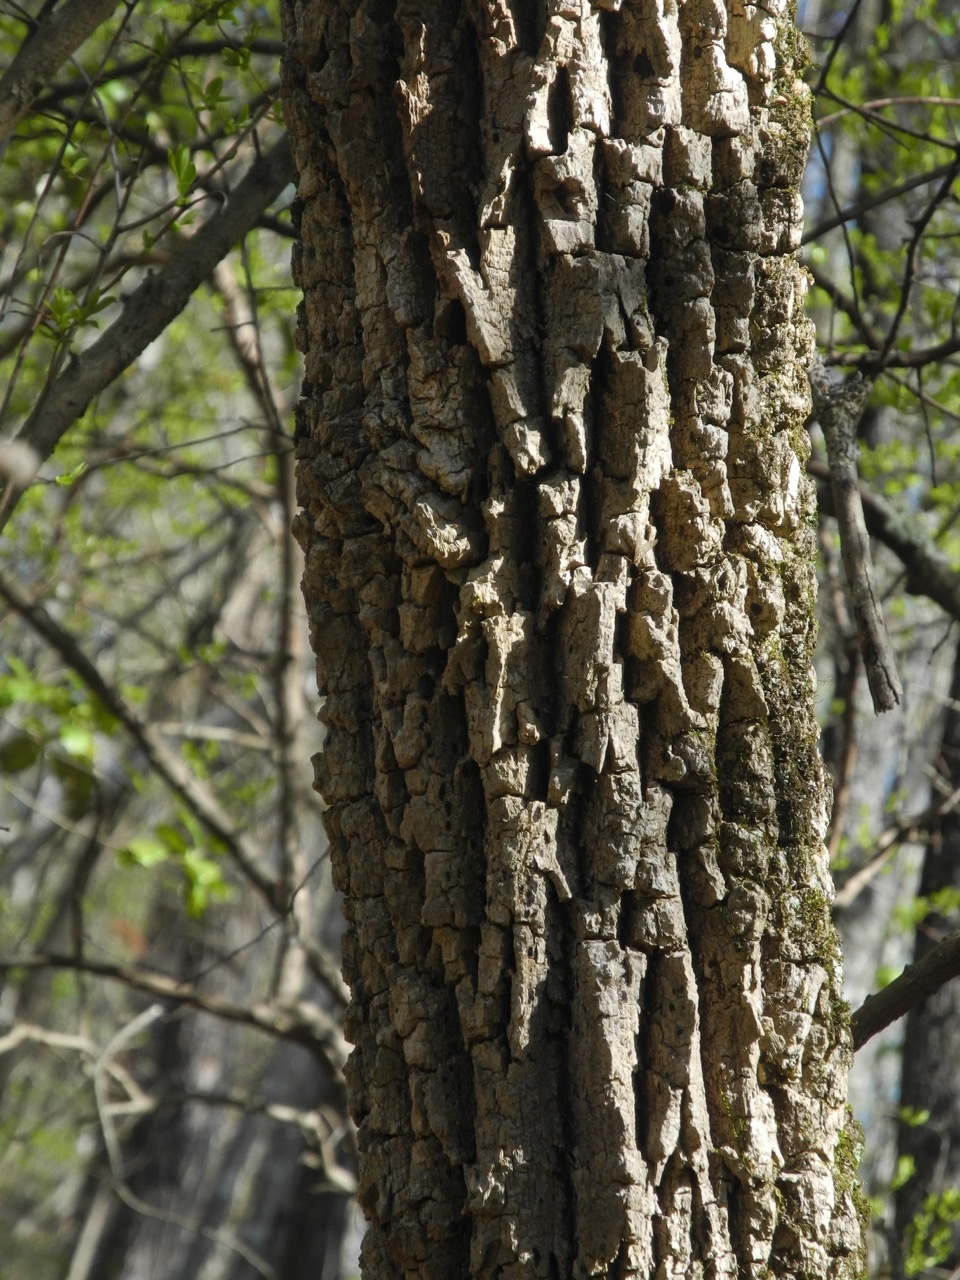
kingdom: Plantae
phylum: Tracheophyta
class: Magnoliopsida
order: Cornales
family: Nyssaceae
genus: Nyssa
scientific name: Nyssa sylvatica
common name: Black tupelo
